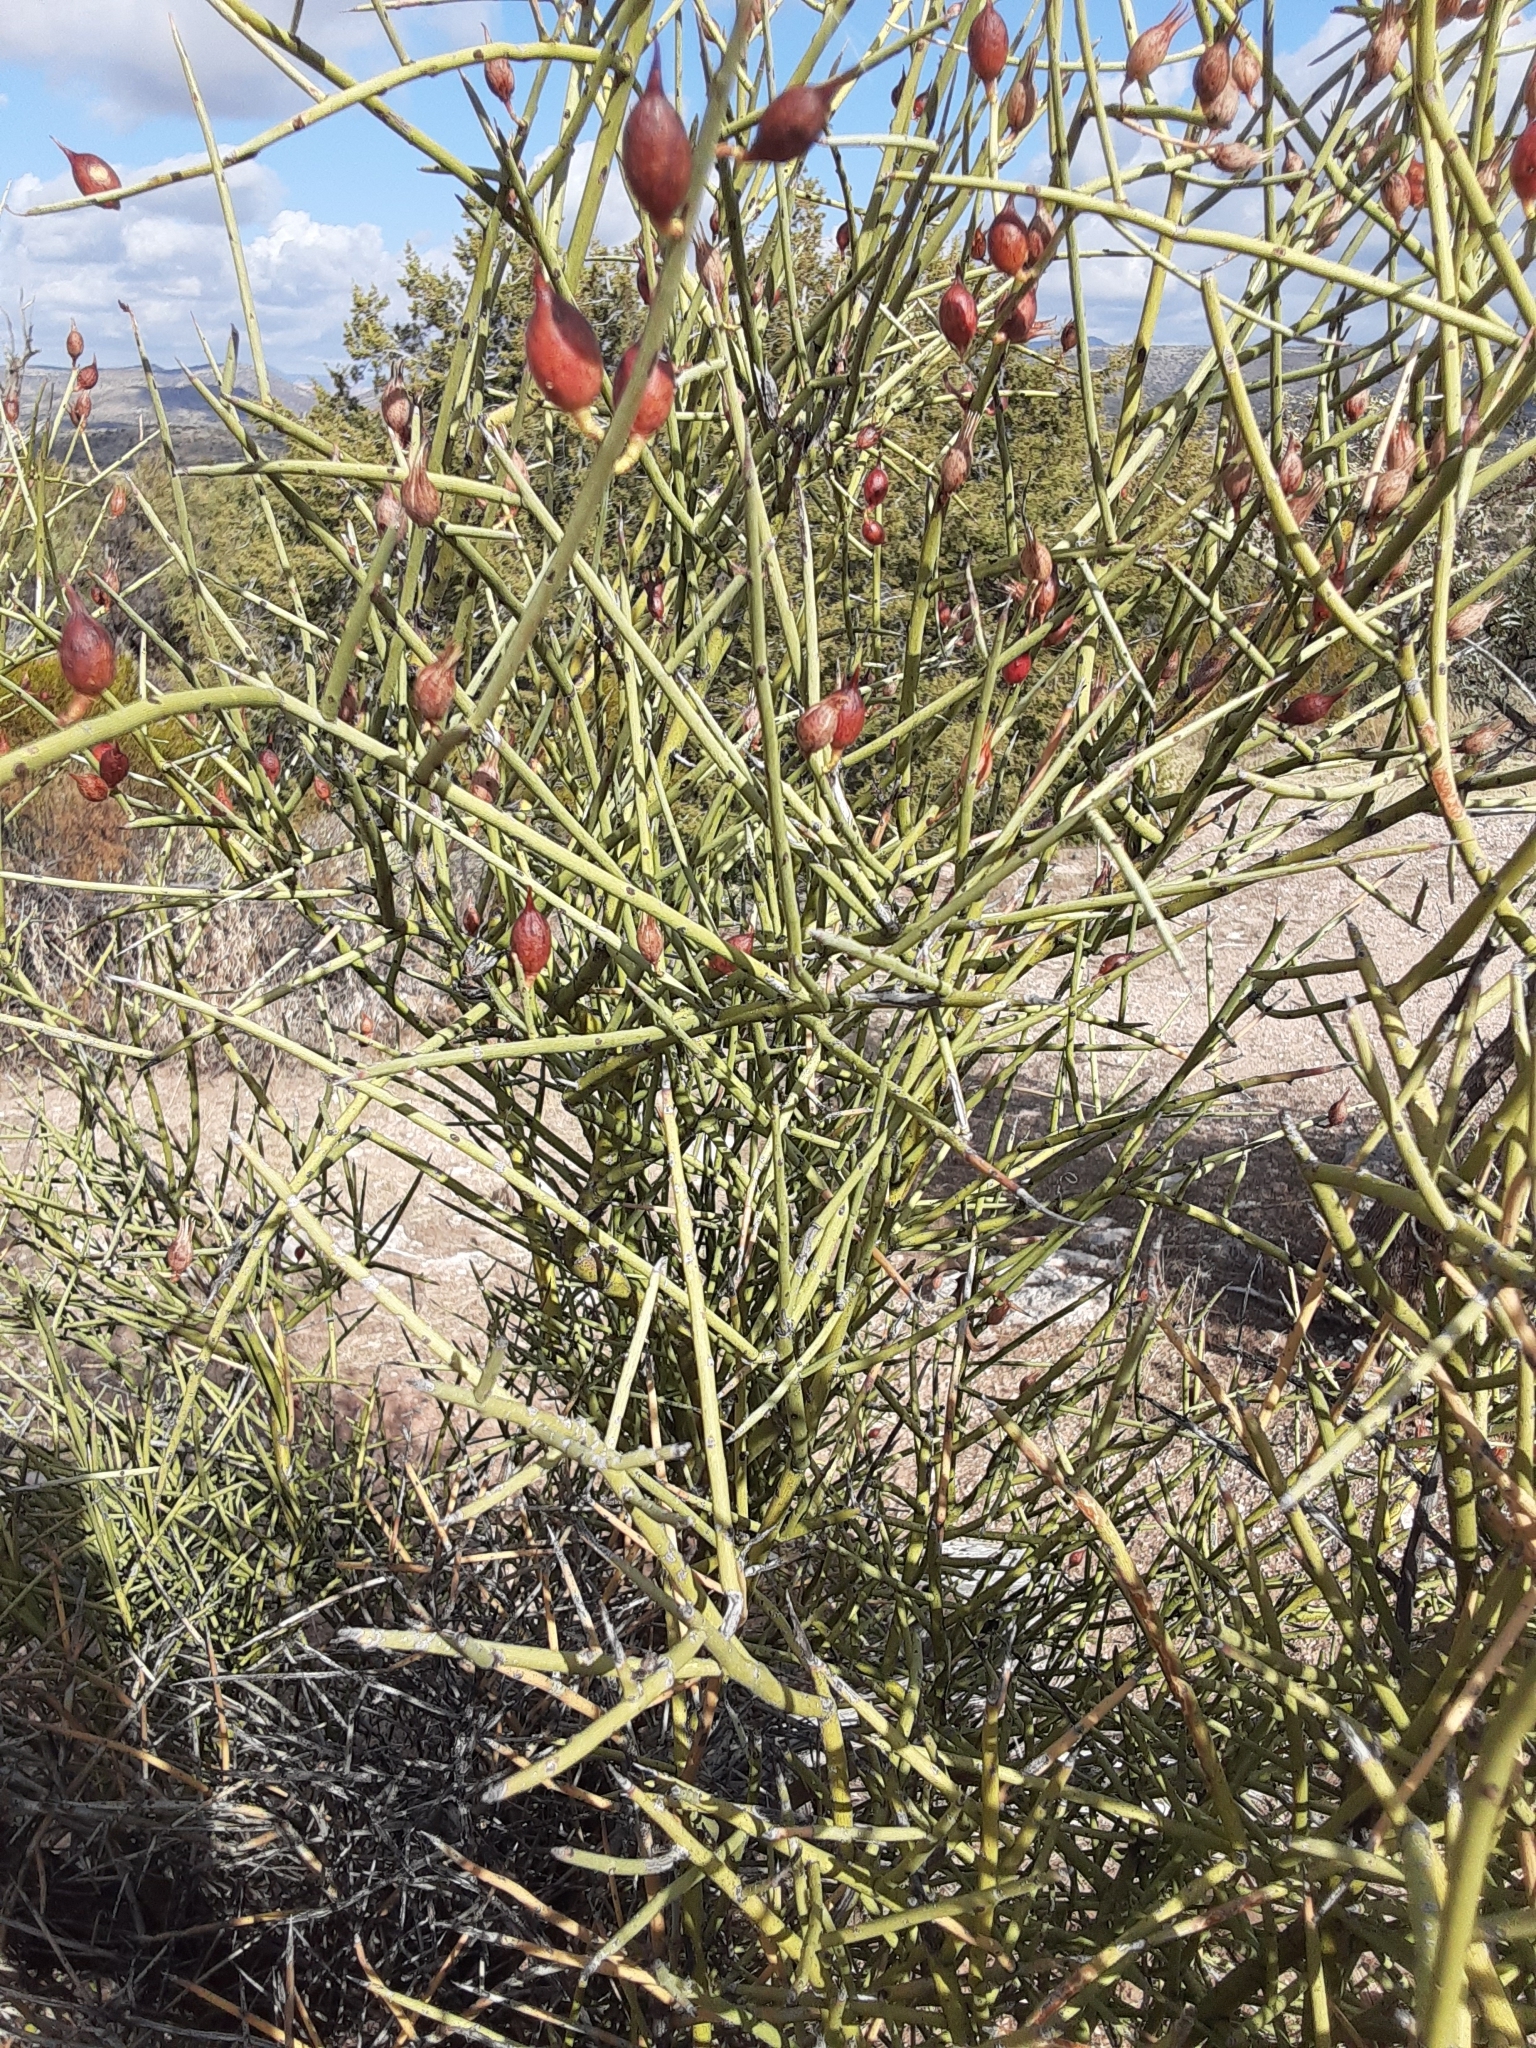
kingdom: Plantae
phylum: Tracheophyta
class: Magnoliopsida
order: Celastrales
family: Celastraceae
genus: Canotia
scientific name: Canotia holacantha
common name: Crucifixion thorns
